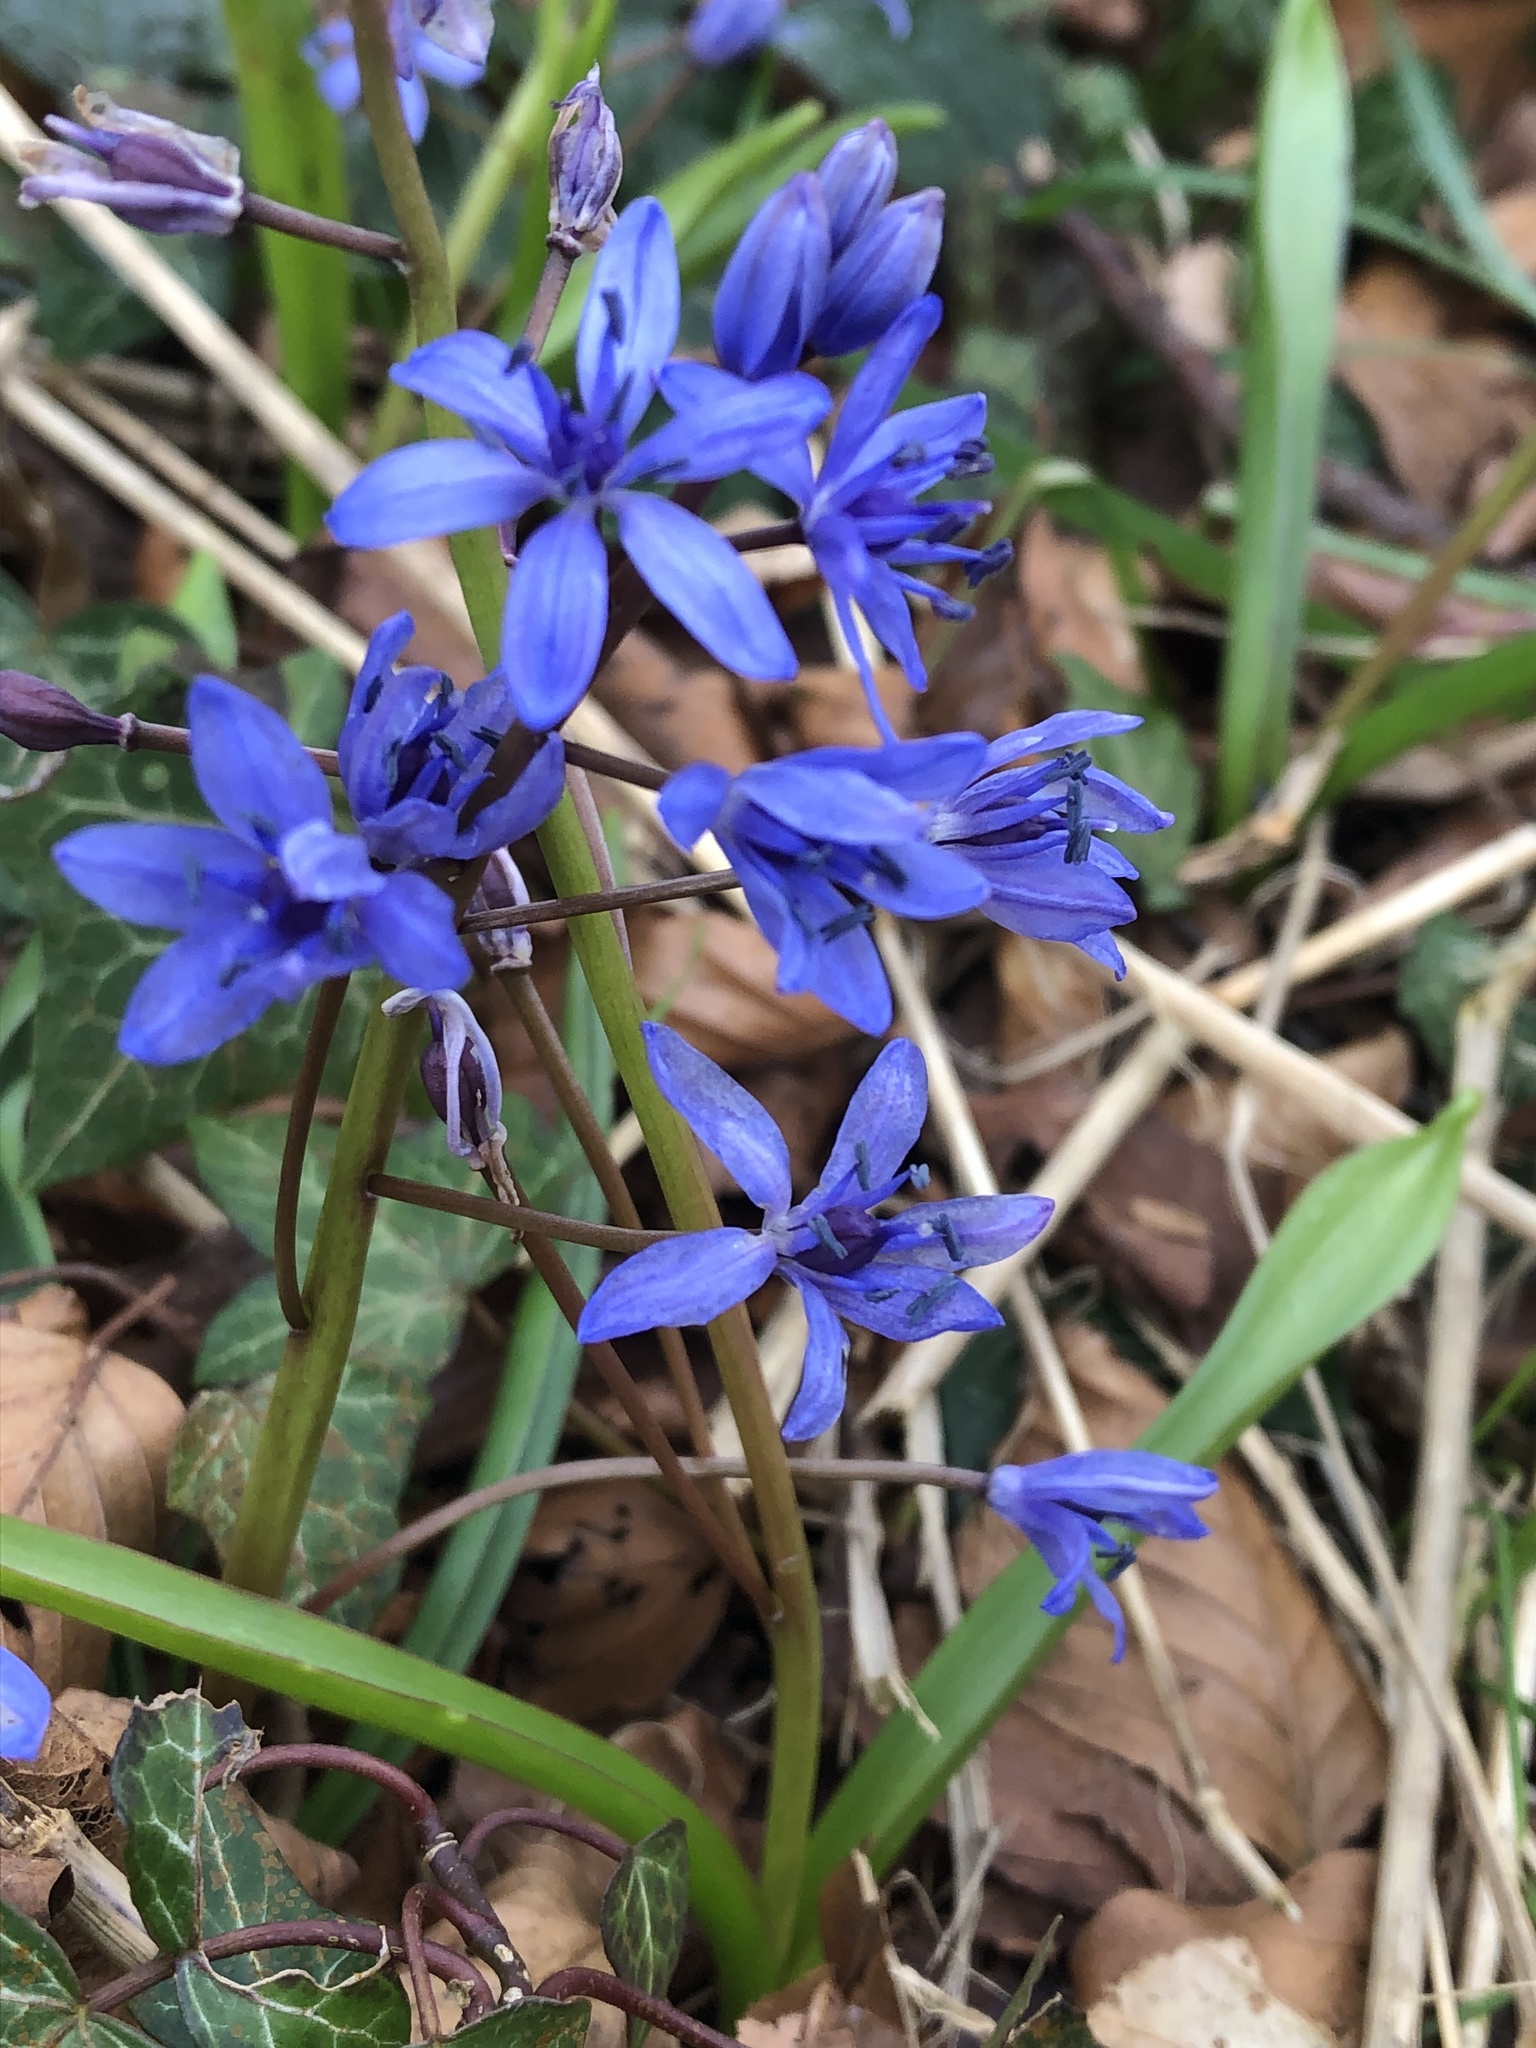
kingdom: Plantae
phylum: Tracheophyta
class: Liliopsida
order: Asparagales
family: Asparagaceae
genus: Scilla
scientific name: Scilla bifolia
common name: Alpine squill
